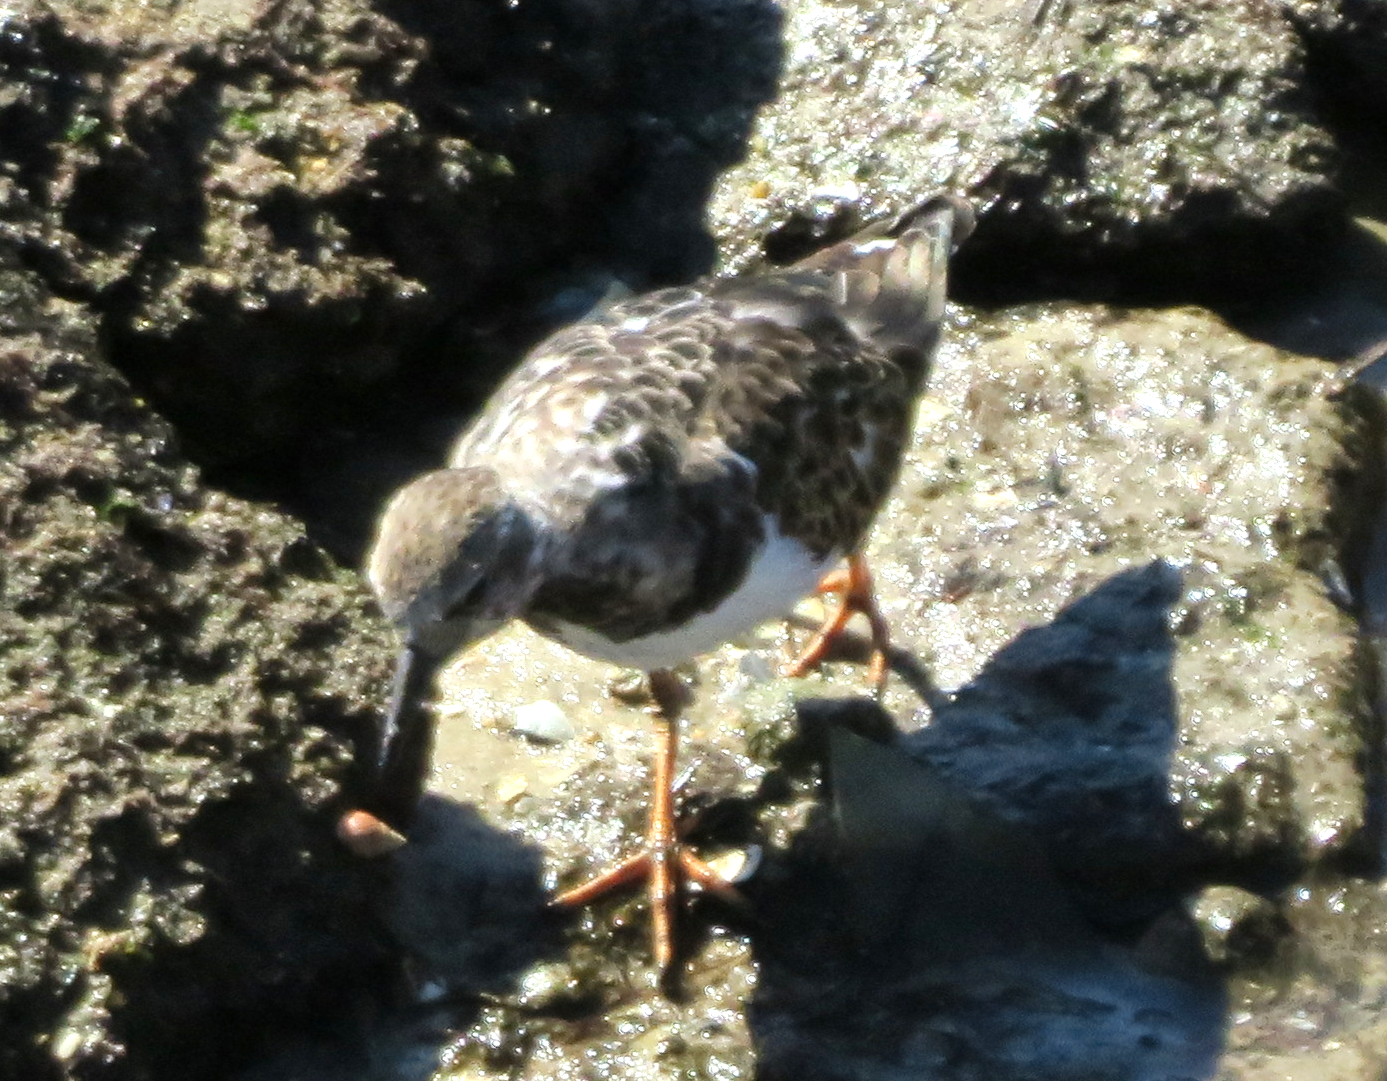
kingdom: Animalia
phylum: Chordata
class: Aves
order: Charadriiformes
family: Scolopacidae
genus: Arenaria
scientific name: Arenaria interpres
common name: Ruddy turnstone
